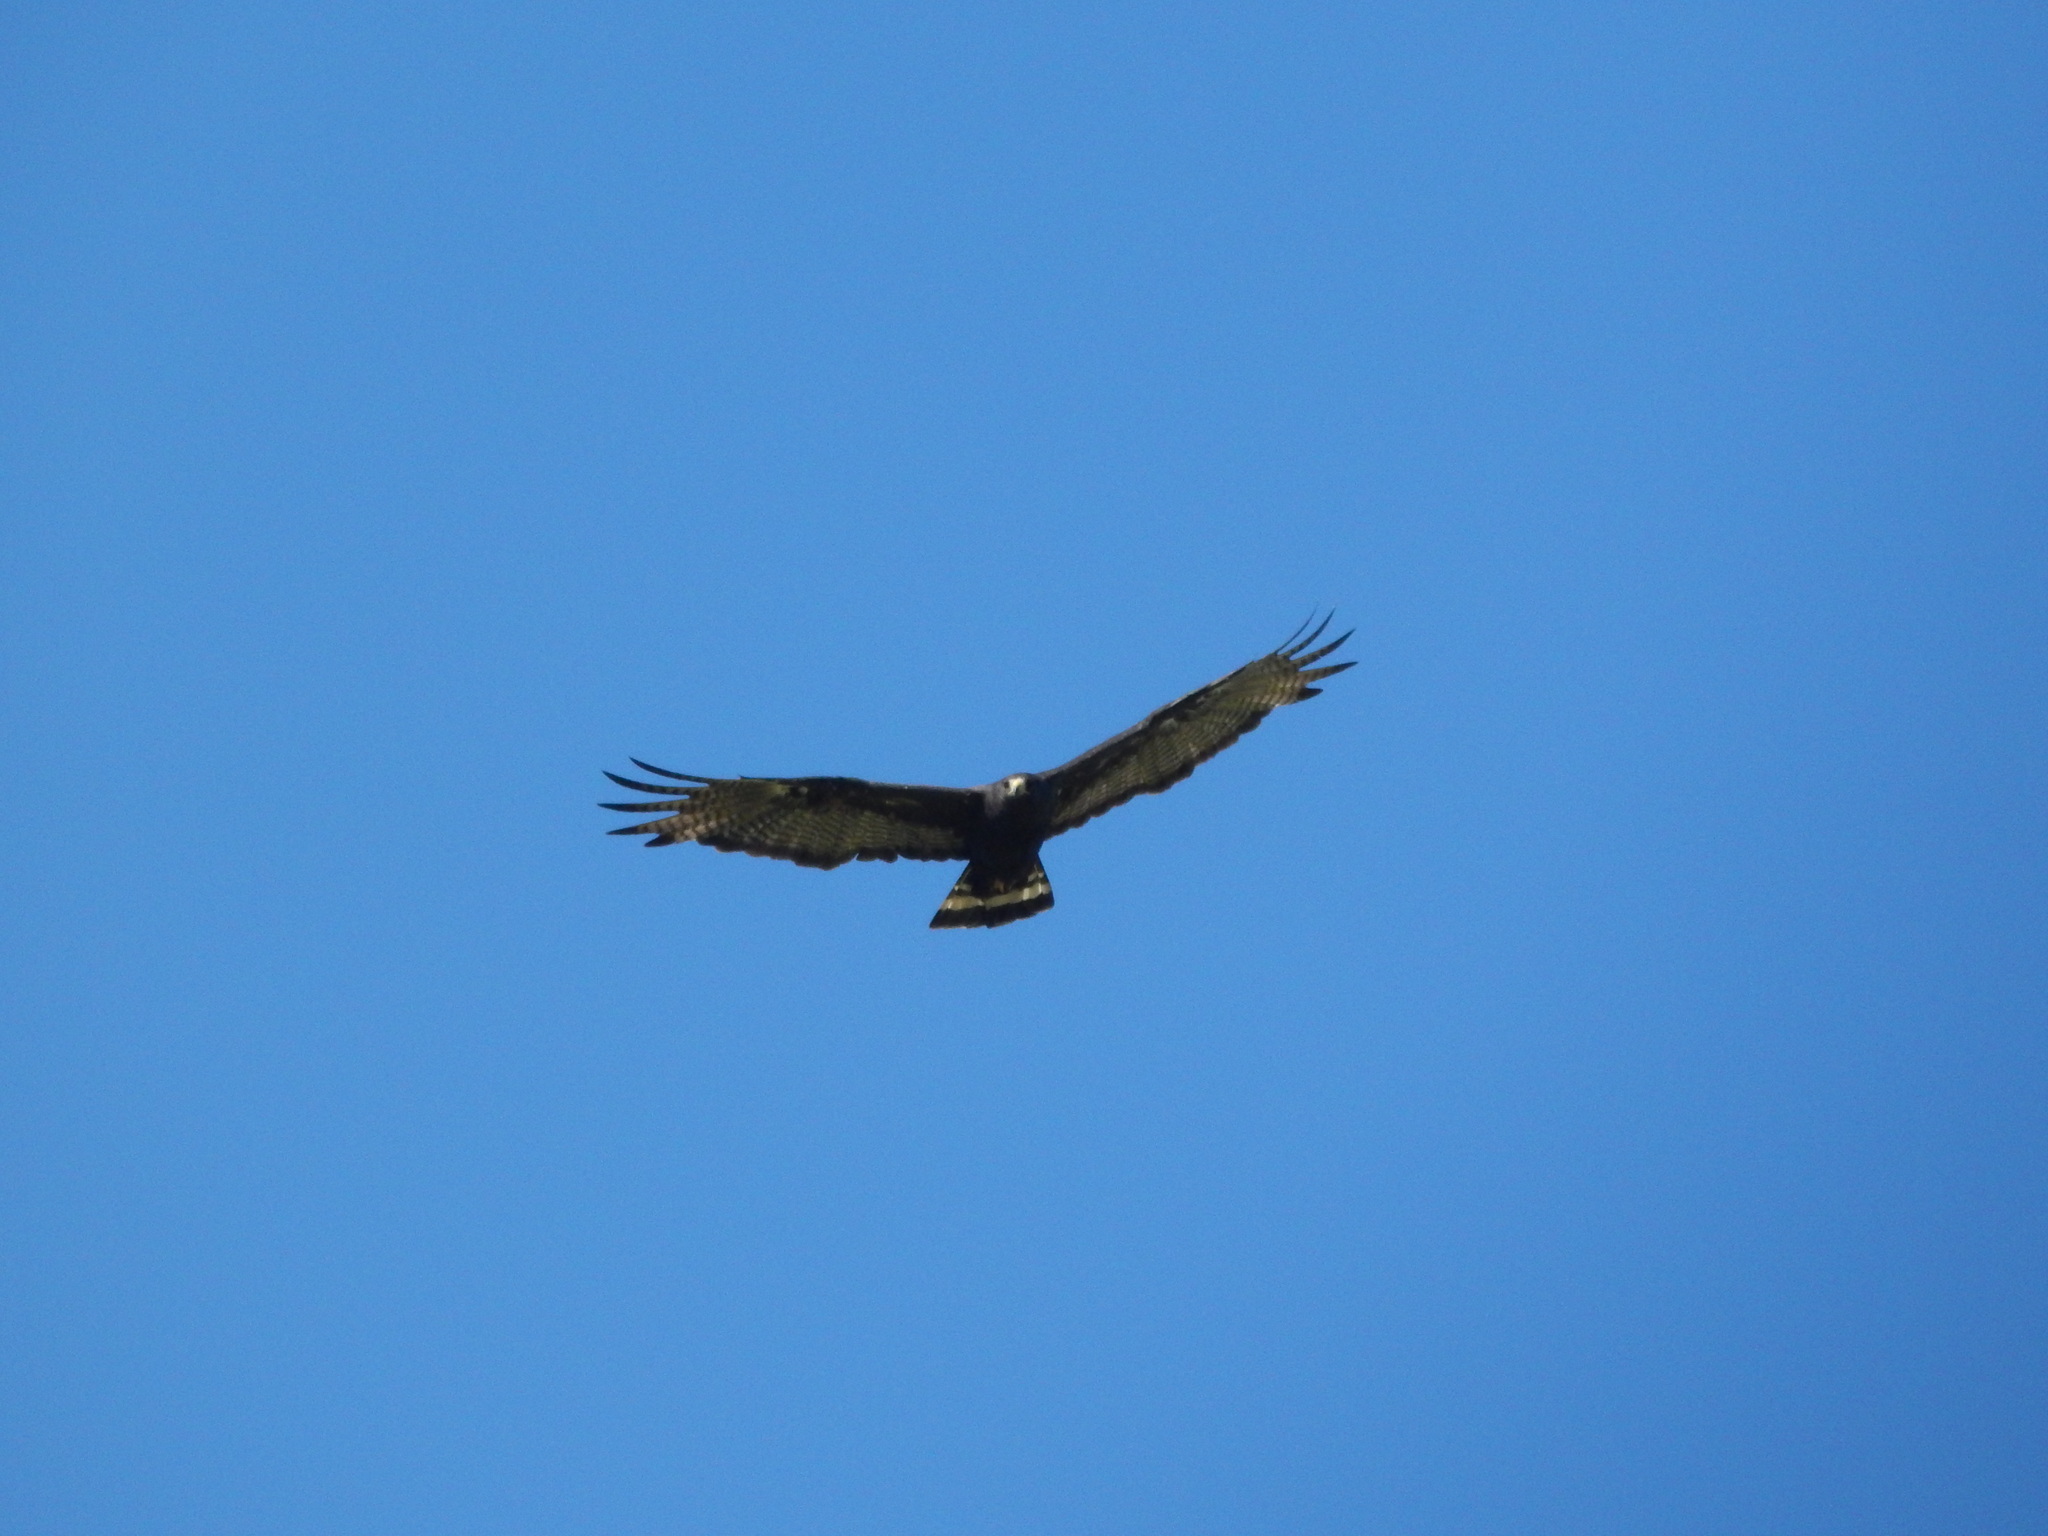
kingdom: Animalia
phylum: Chordata
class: Aves
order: Accipitriformes
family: Accipitridae
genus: Buteo
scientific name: Buteo albonotatus
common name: Zone-tailed hawk
